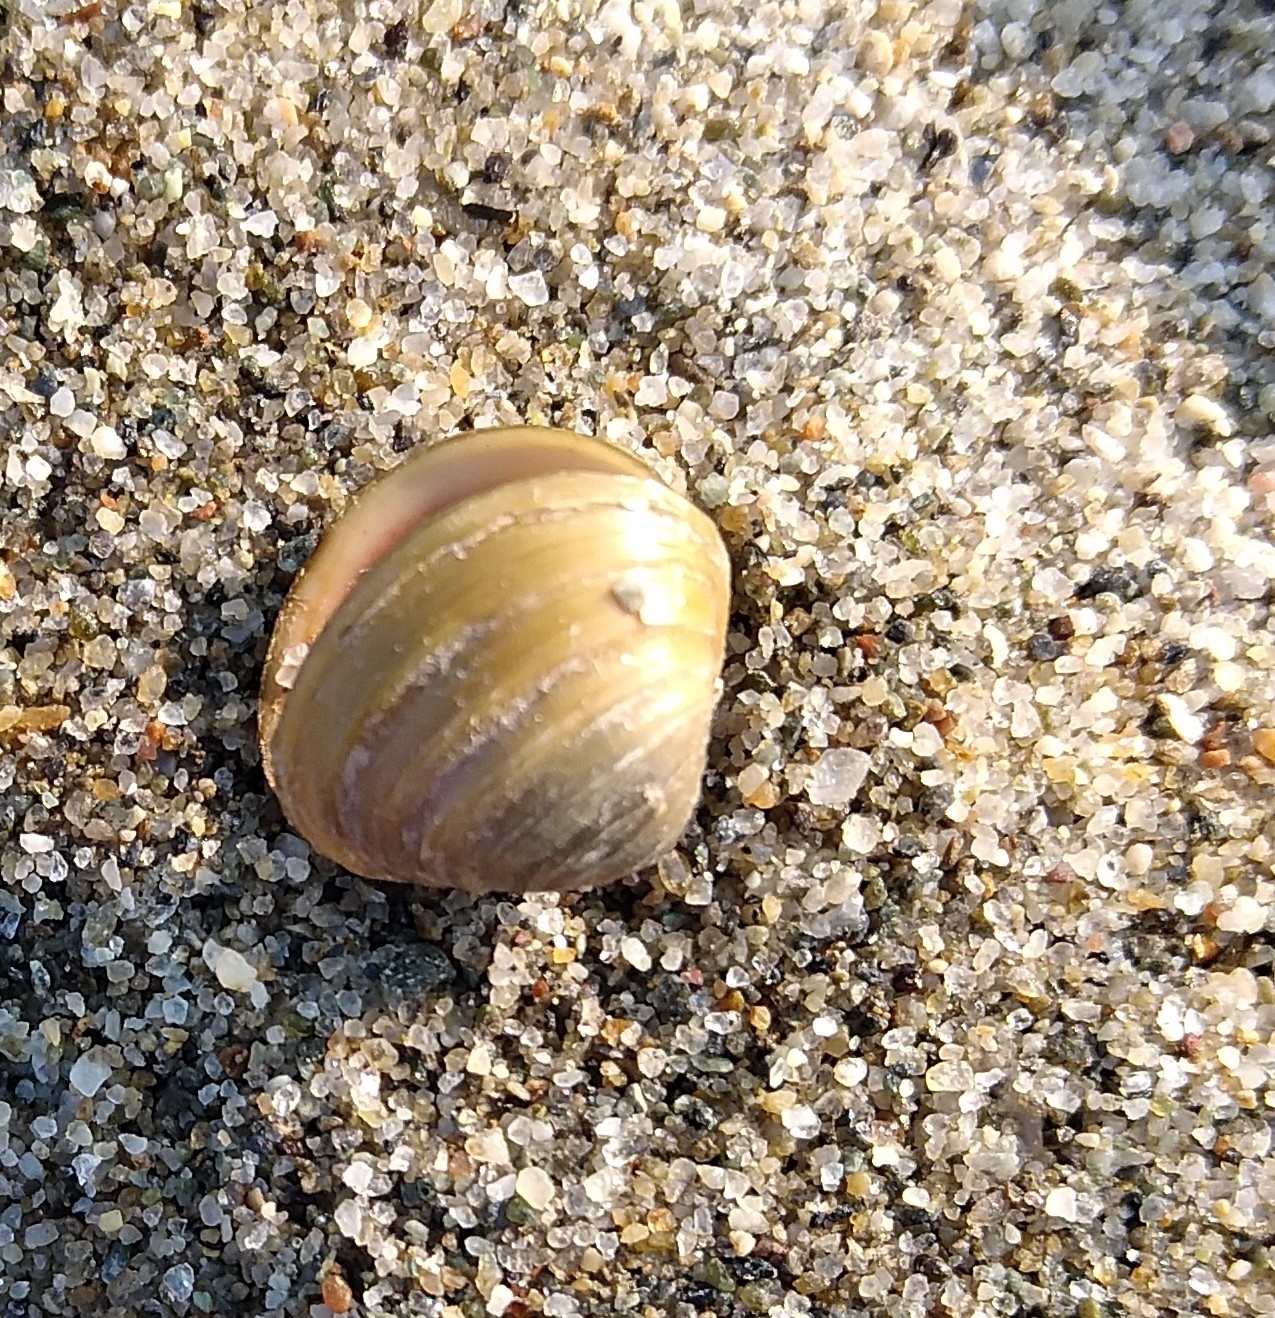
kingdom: Animalia
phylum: Mollusca
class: Bivalvia
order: Venerida
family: Cyrenidae
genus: Corbicula
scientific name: Corbicula fluminea
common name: Asian clam
